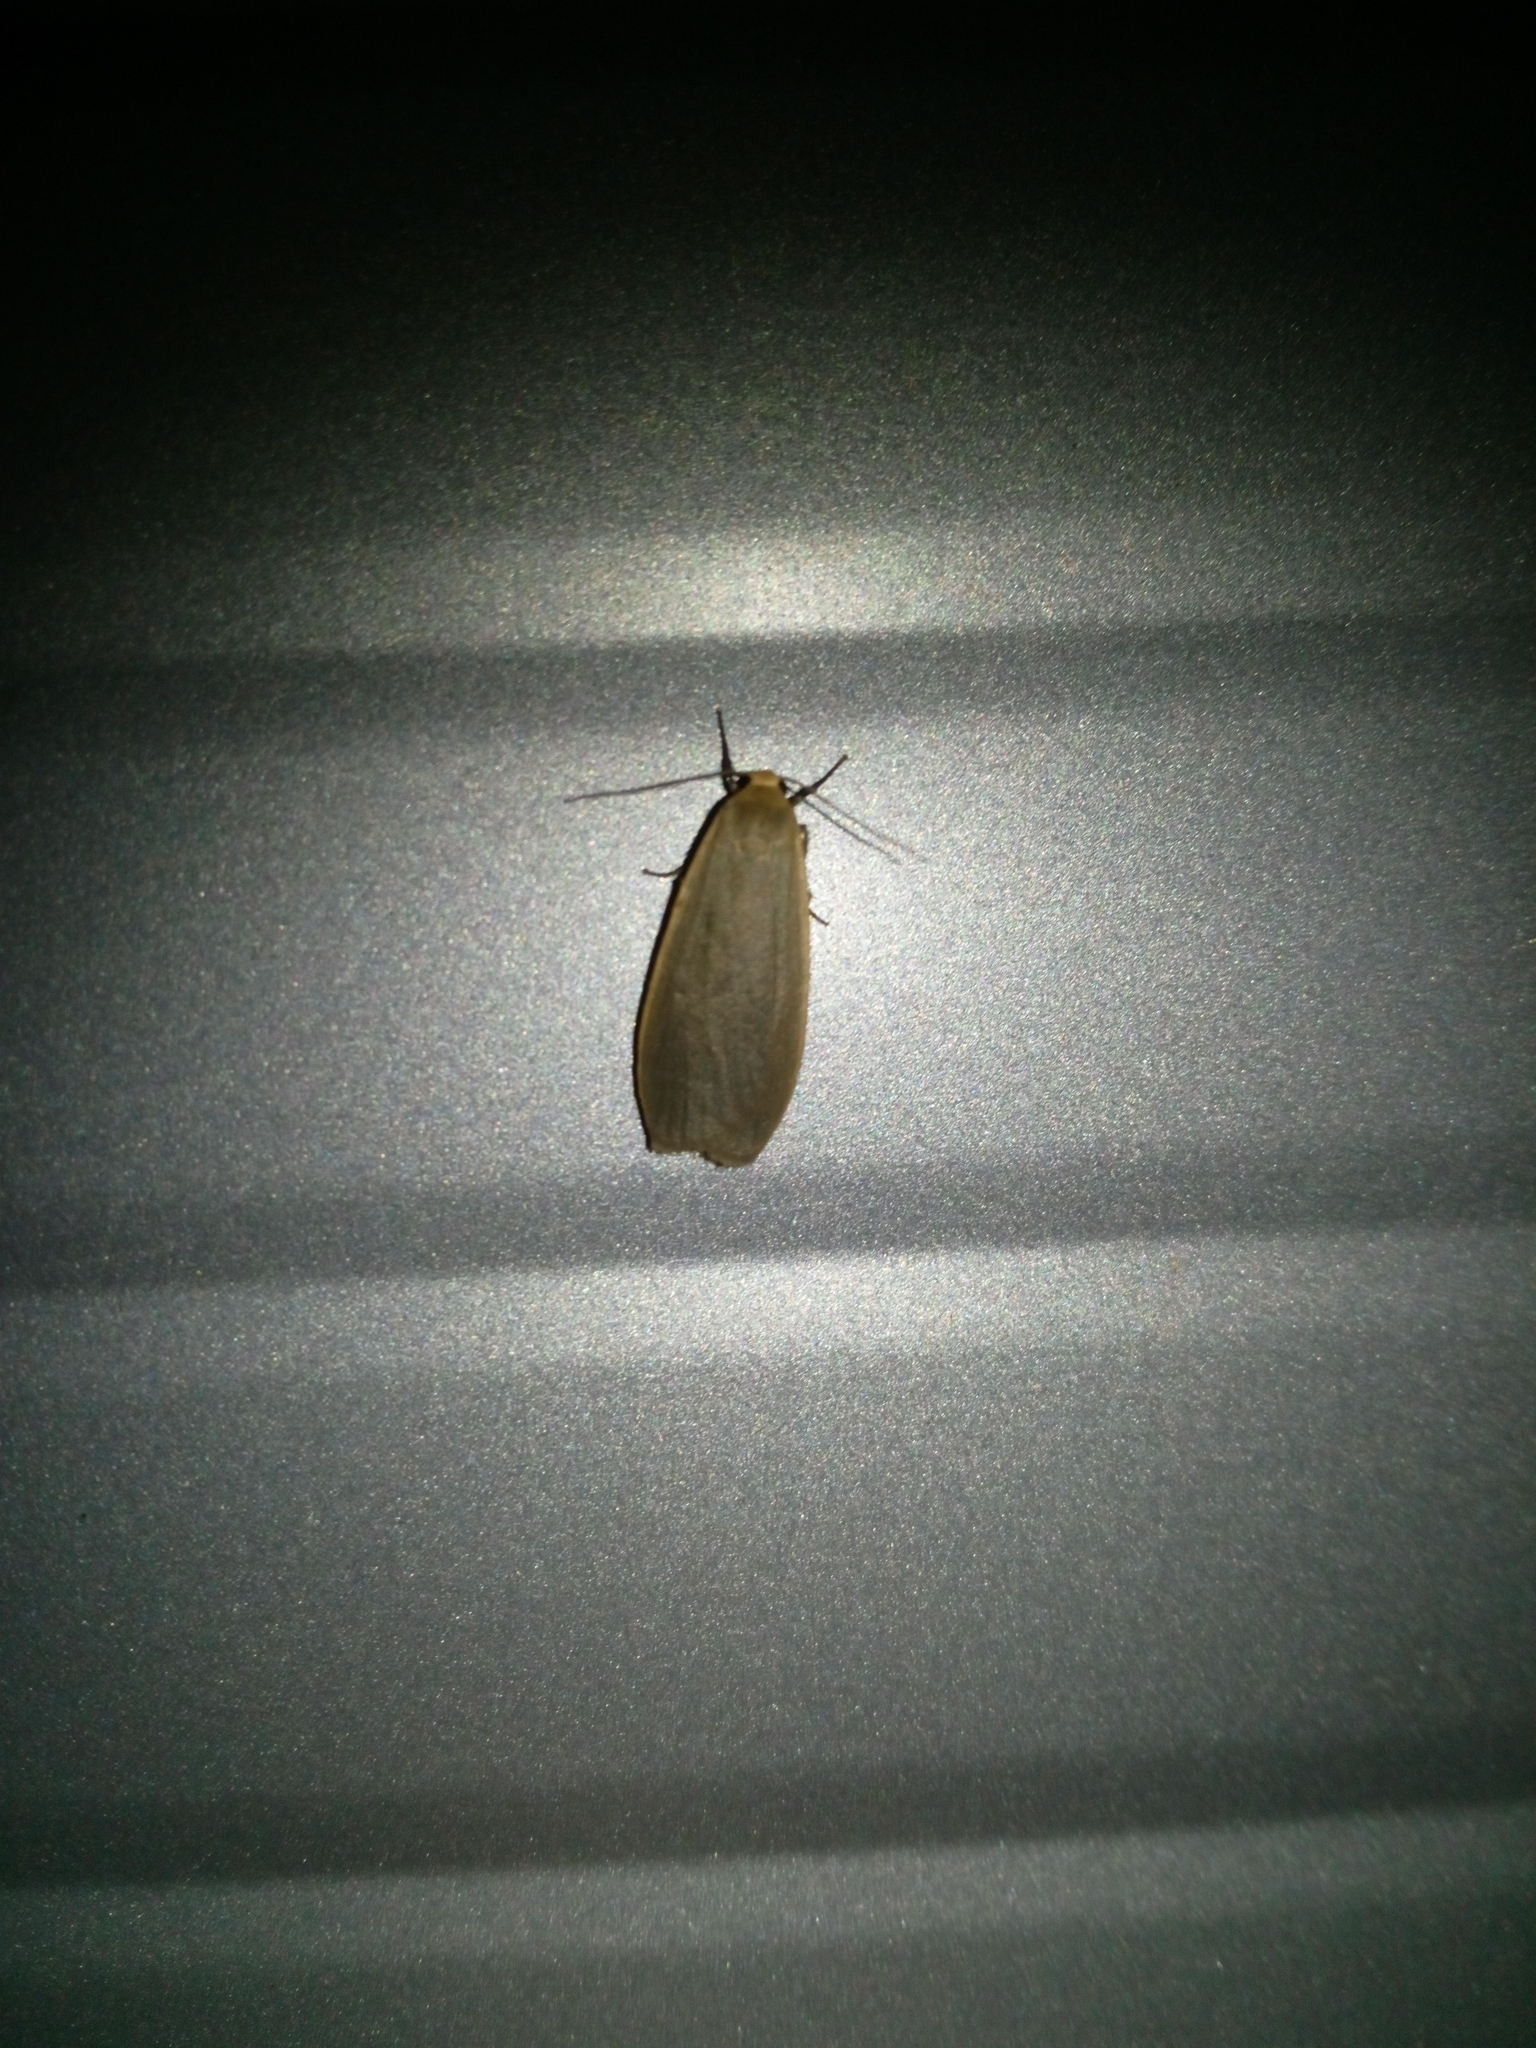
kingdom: Animalia
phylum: Arthropoda
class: Insecta
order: Lepidoptera
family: Erebidae
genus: Collita
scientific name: Collita griseola
